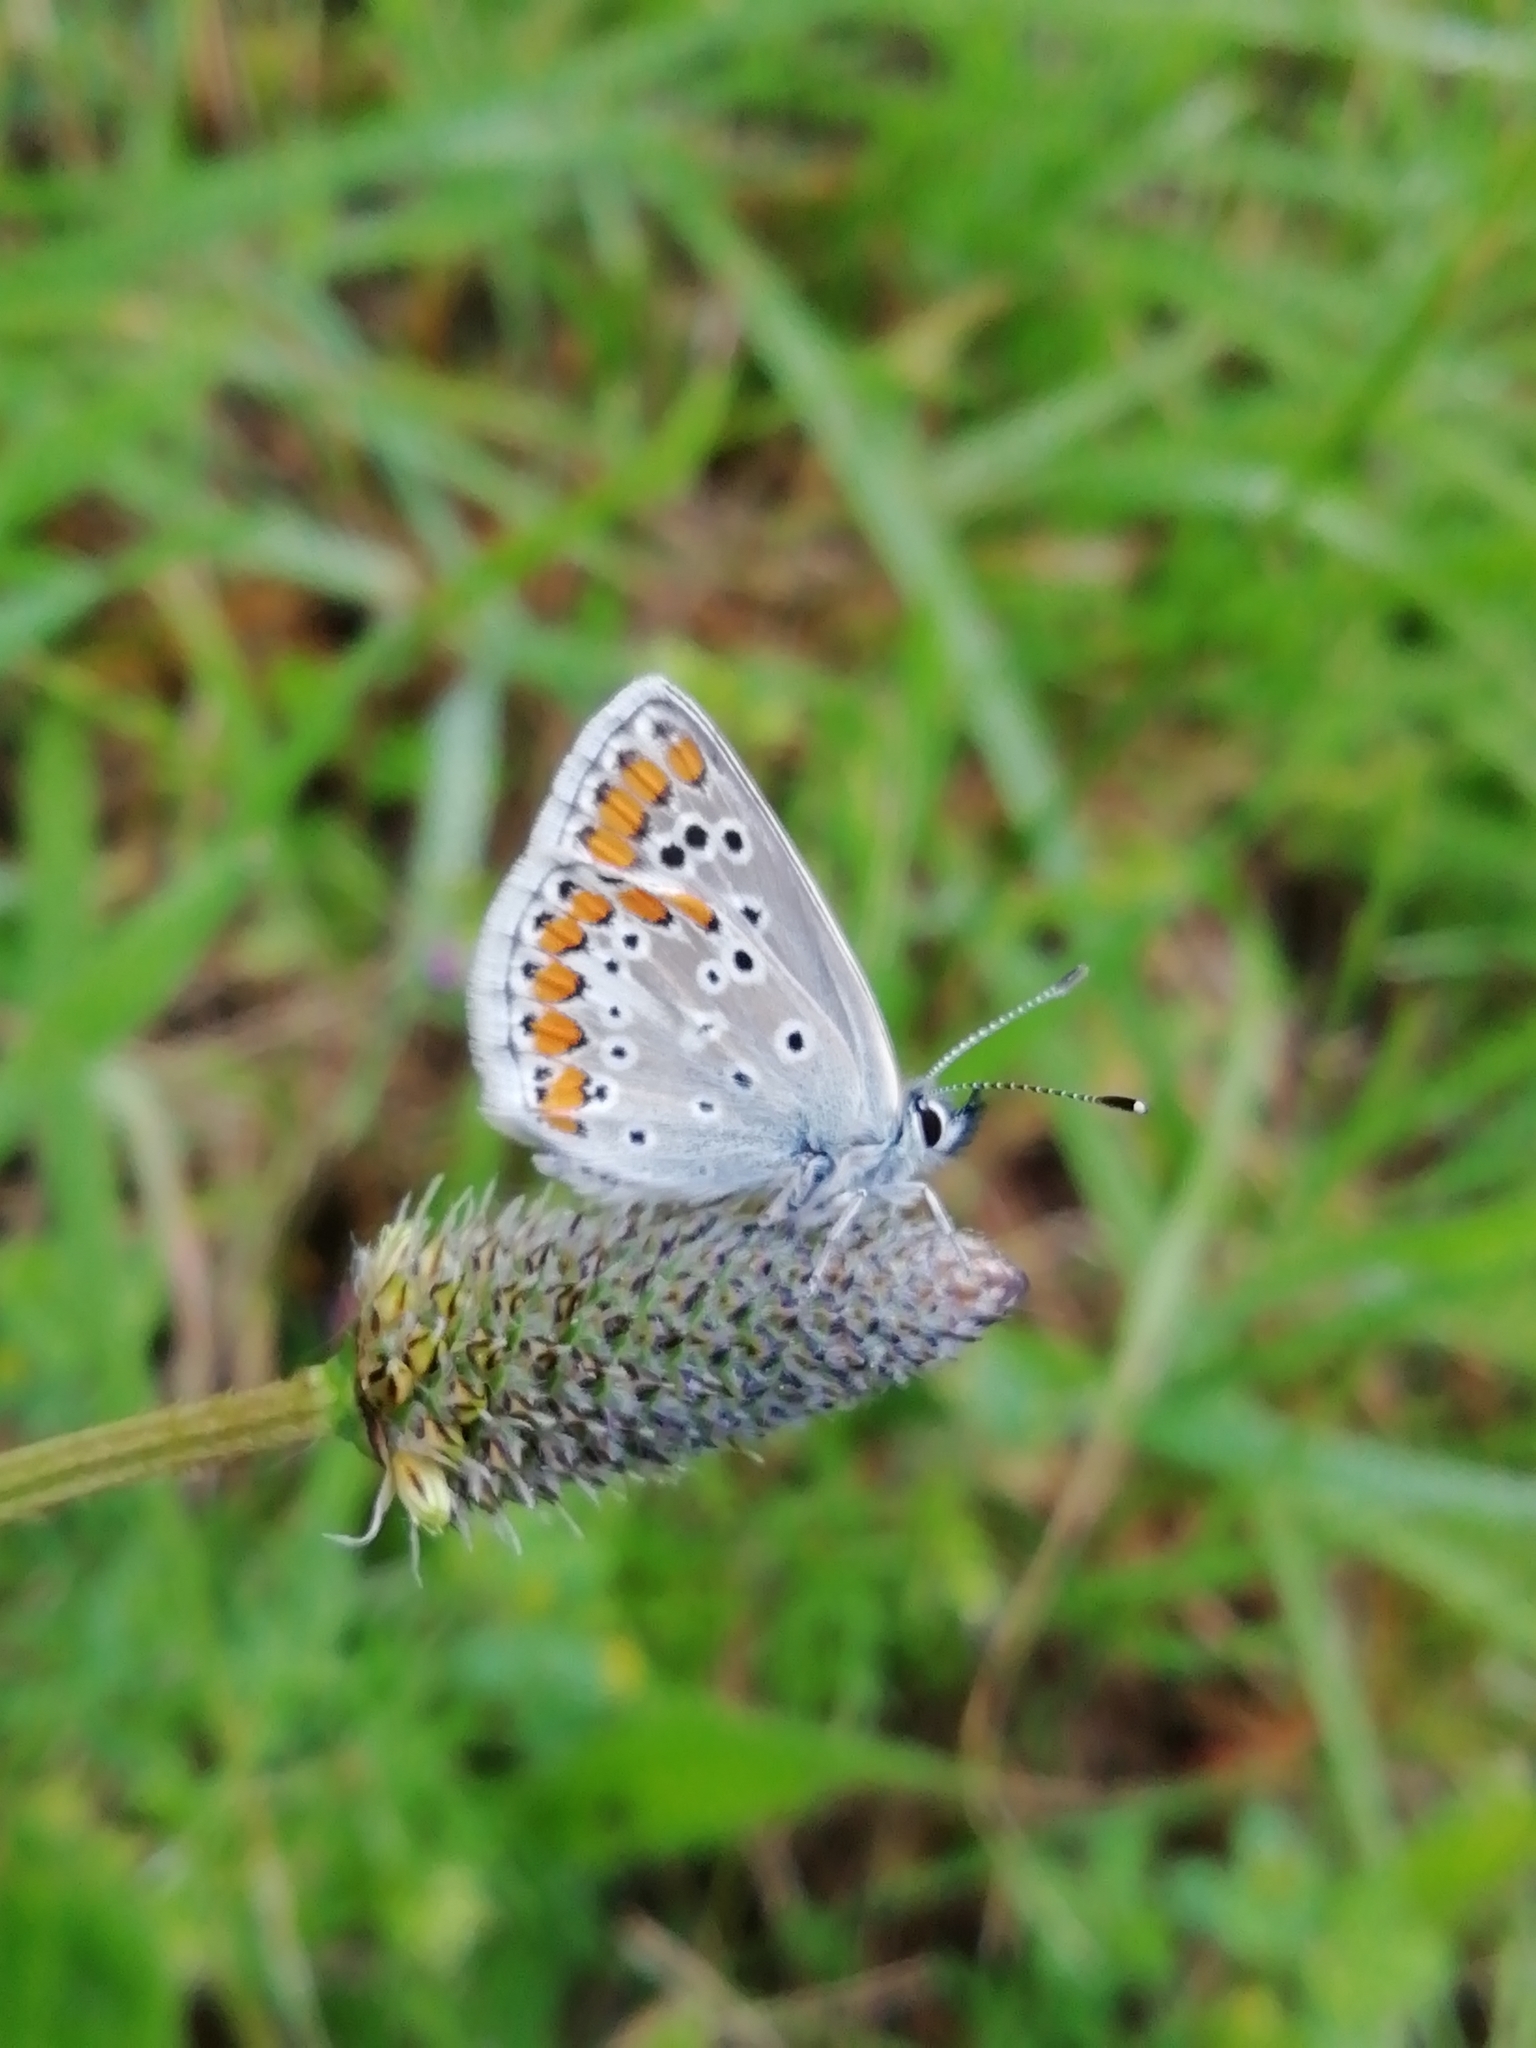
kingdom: Animalia
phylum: Arthropoda
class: Insecta
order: Lepidoptera
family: Lycaenidae
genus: Aricia
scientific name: Aricia agestis
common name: Brown argus
